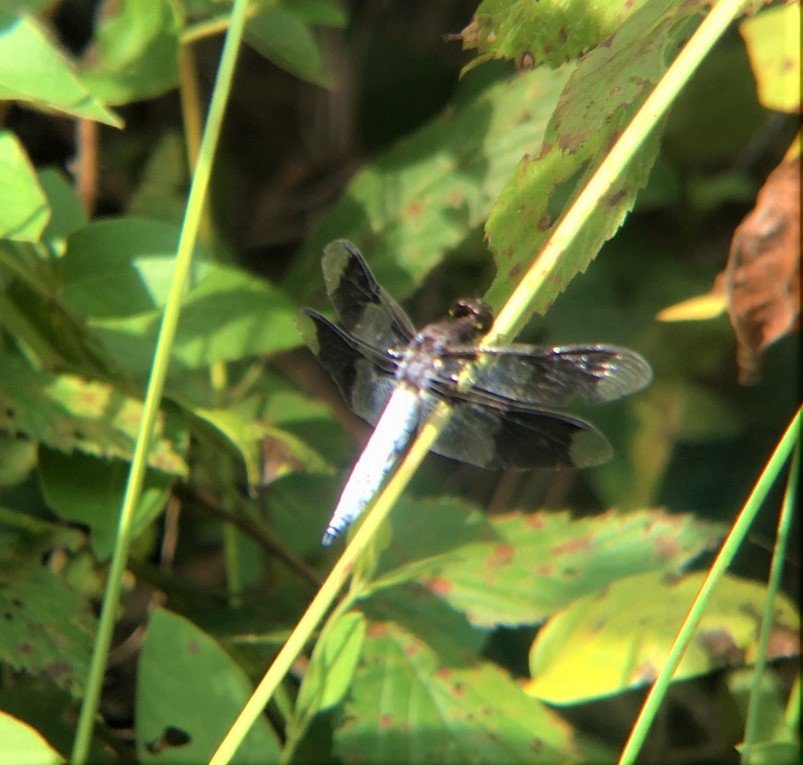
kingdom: Animalia
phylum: Arthropoda
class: Insecta
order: Odonata
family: Libellulidae
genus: Plathemis
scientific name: Plathemis lydia
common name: Common whitetail
